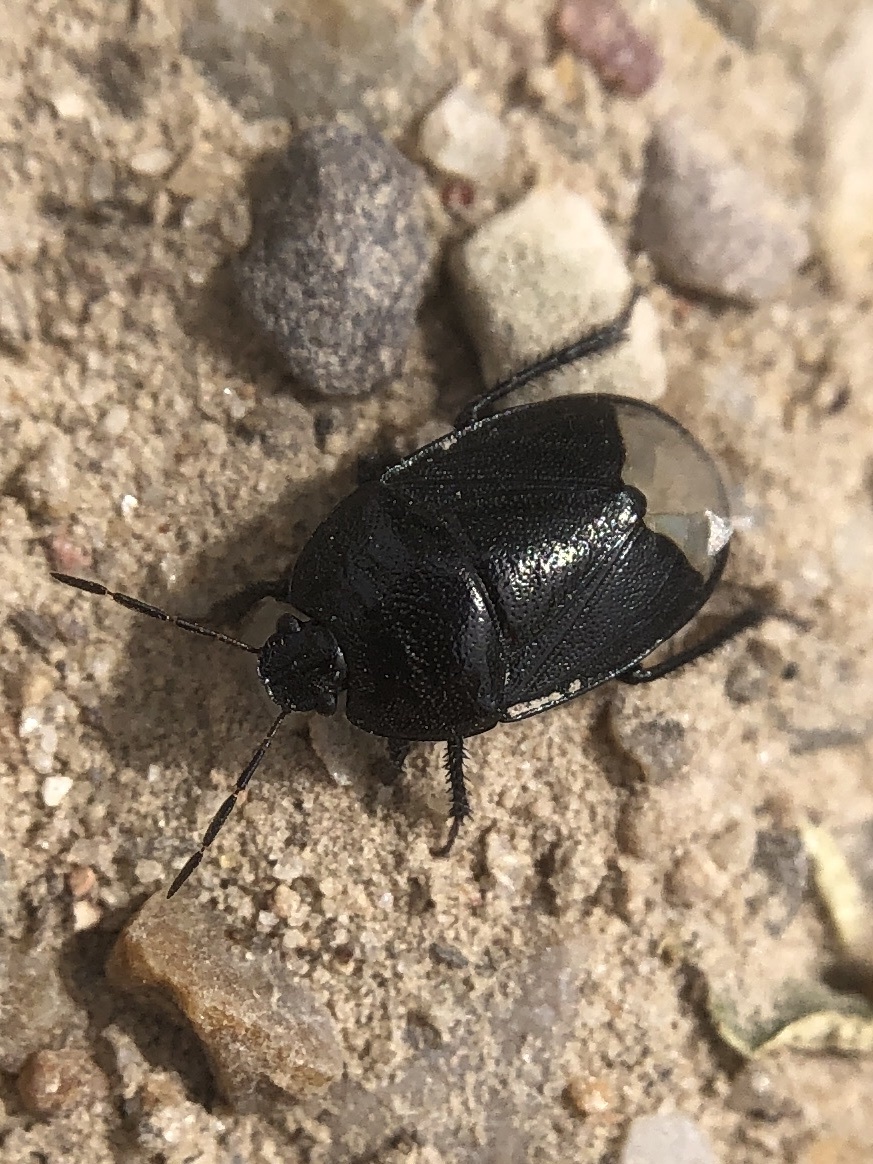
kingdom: Animalia
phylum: Arthropoda
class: Insecta
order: Hemiptera
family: Cydnidae
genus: Sehirus
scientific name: Sehirus morio
